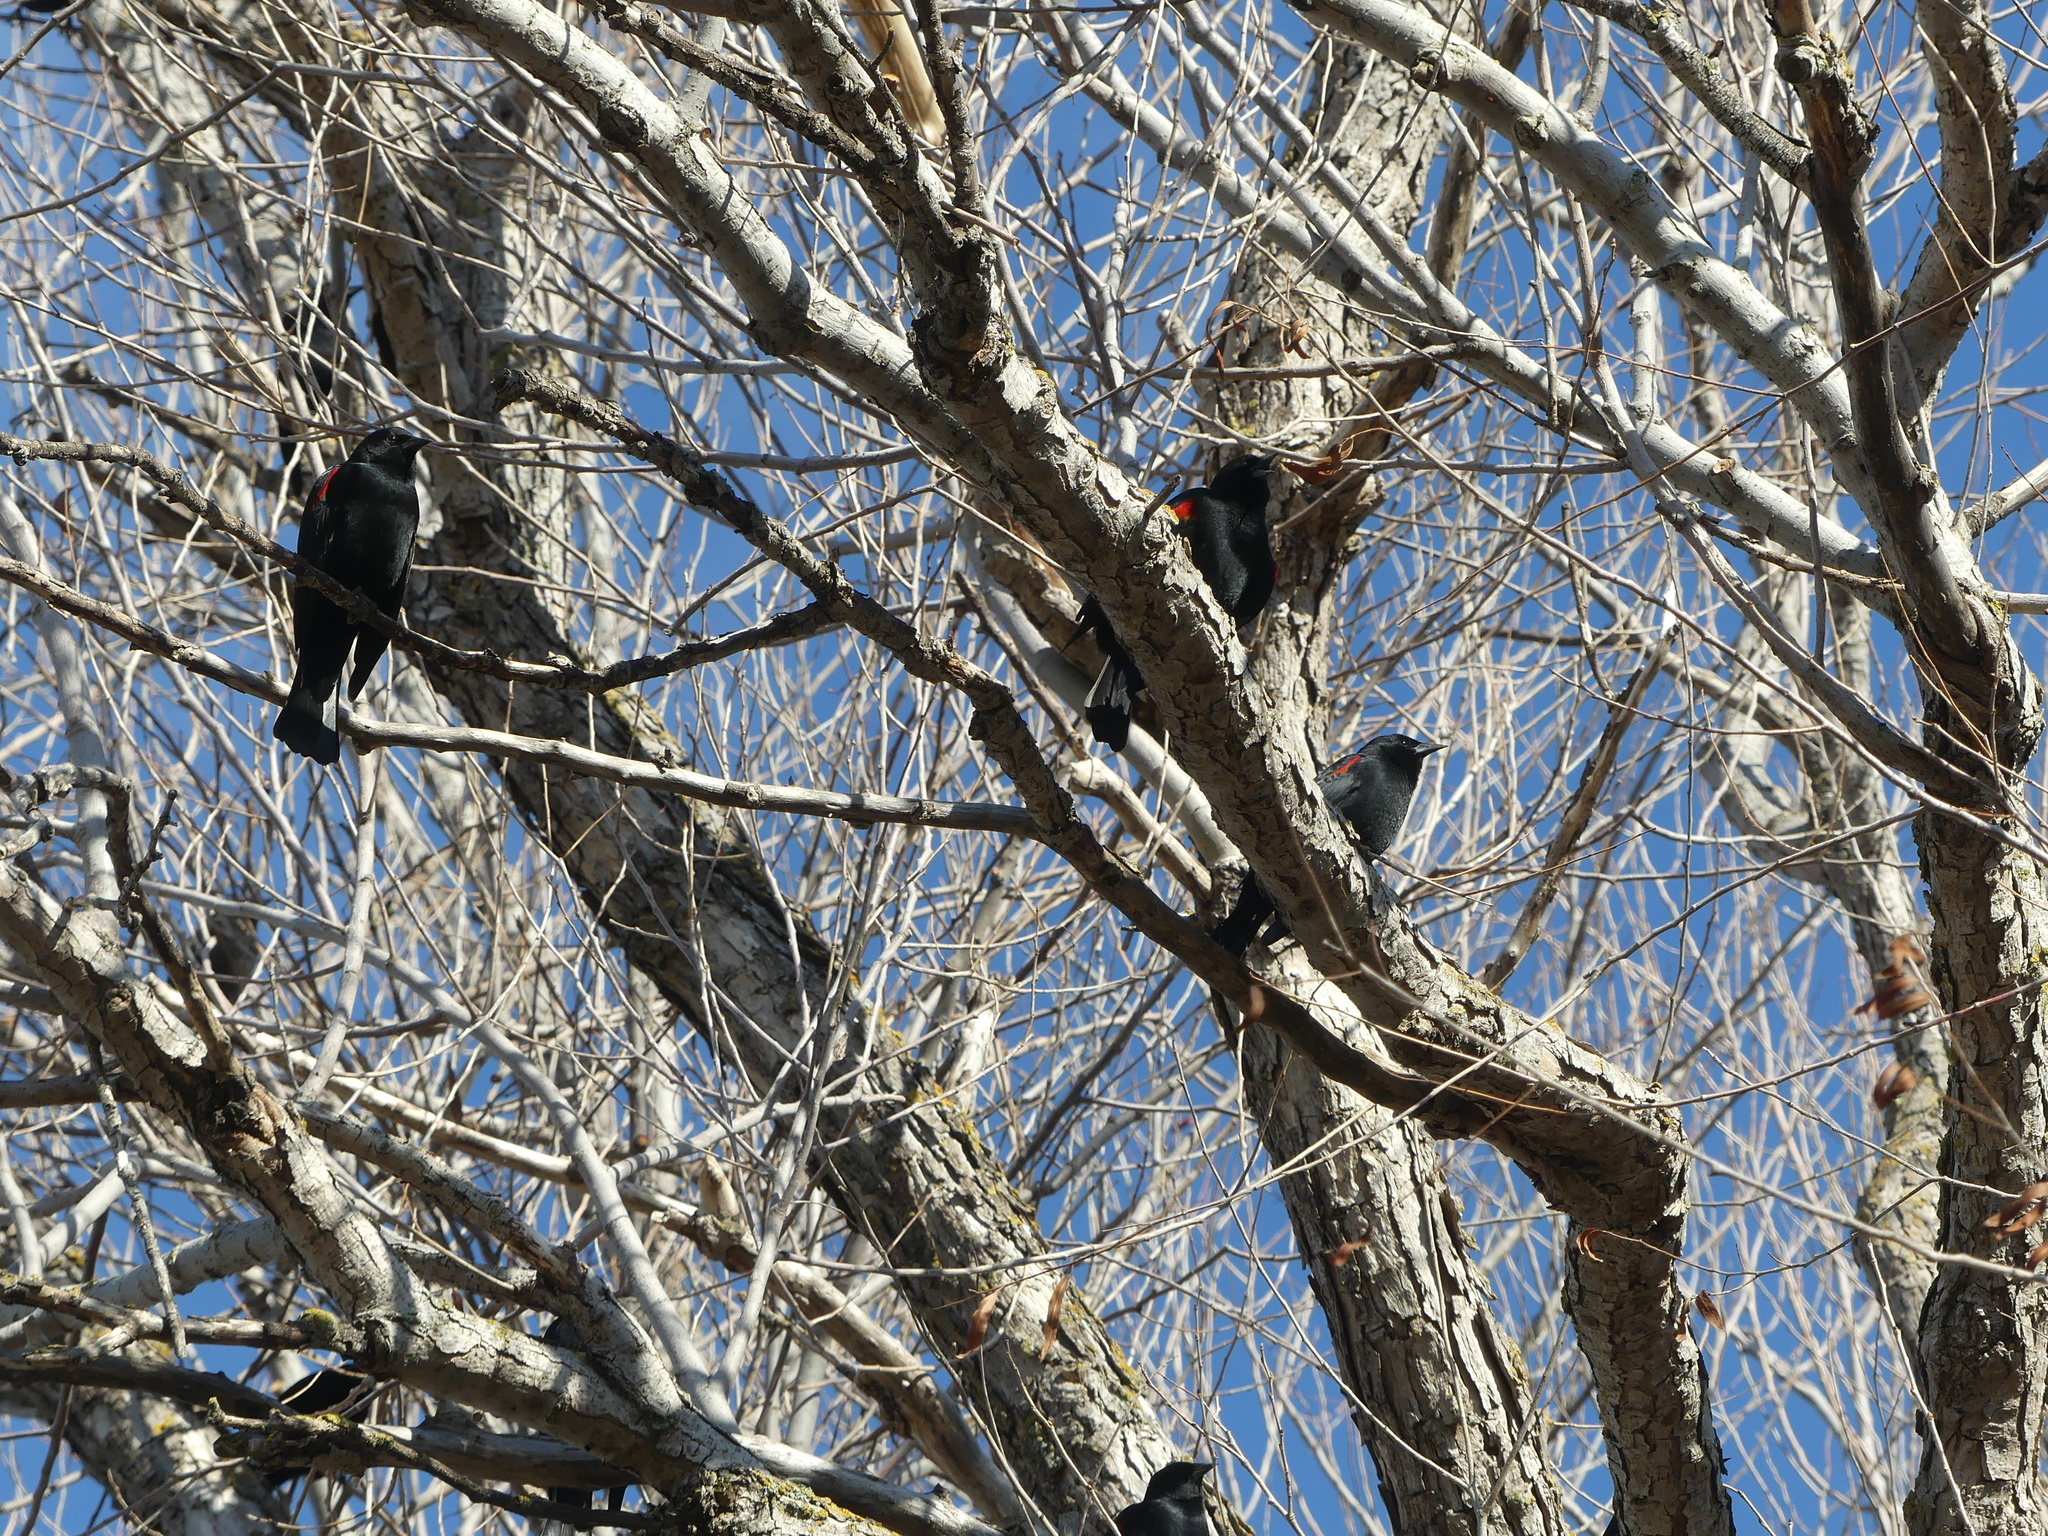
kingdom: Animalia
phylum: Chordata
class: Aves
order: Passeriformes
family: Icteridae
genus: Agelaius
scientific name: Agelaius phoeniceus
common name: Red-winged blackbird
